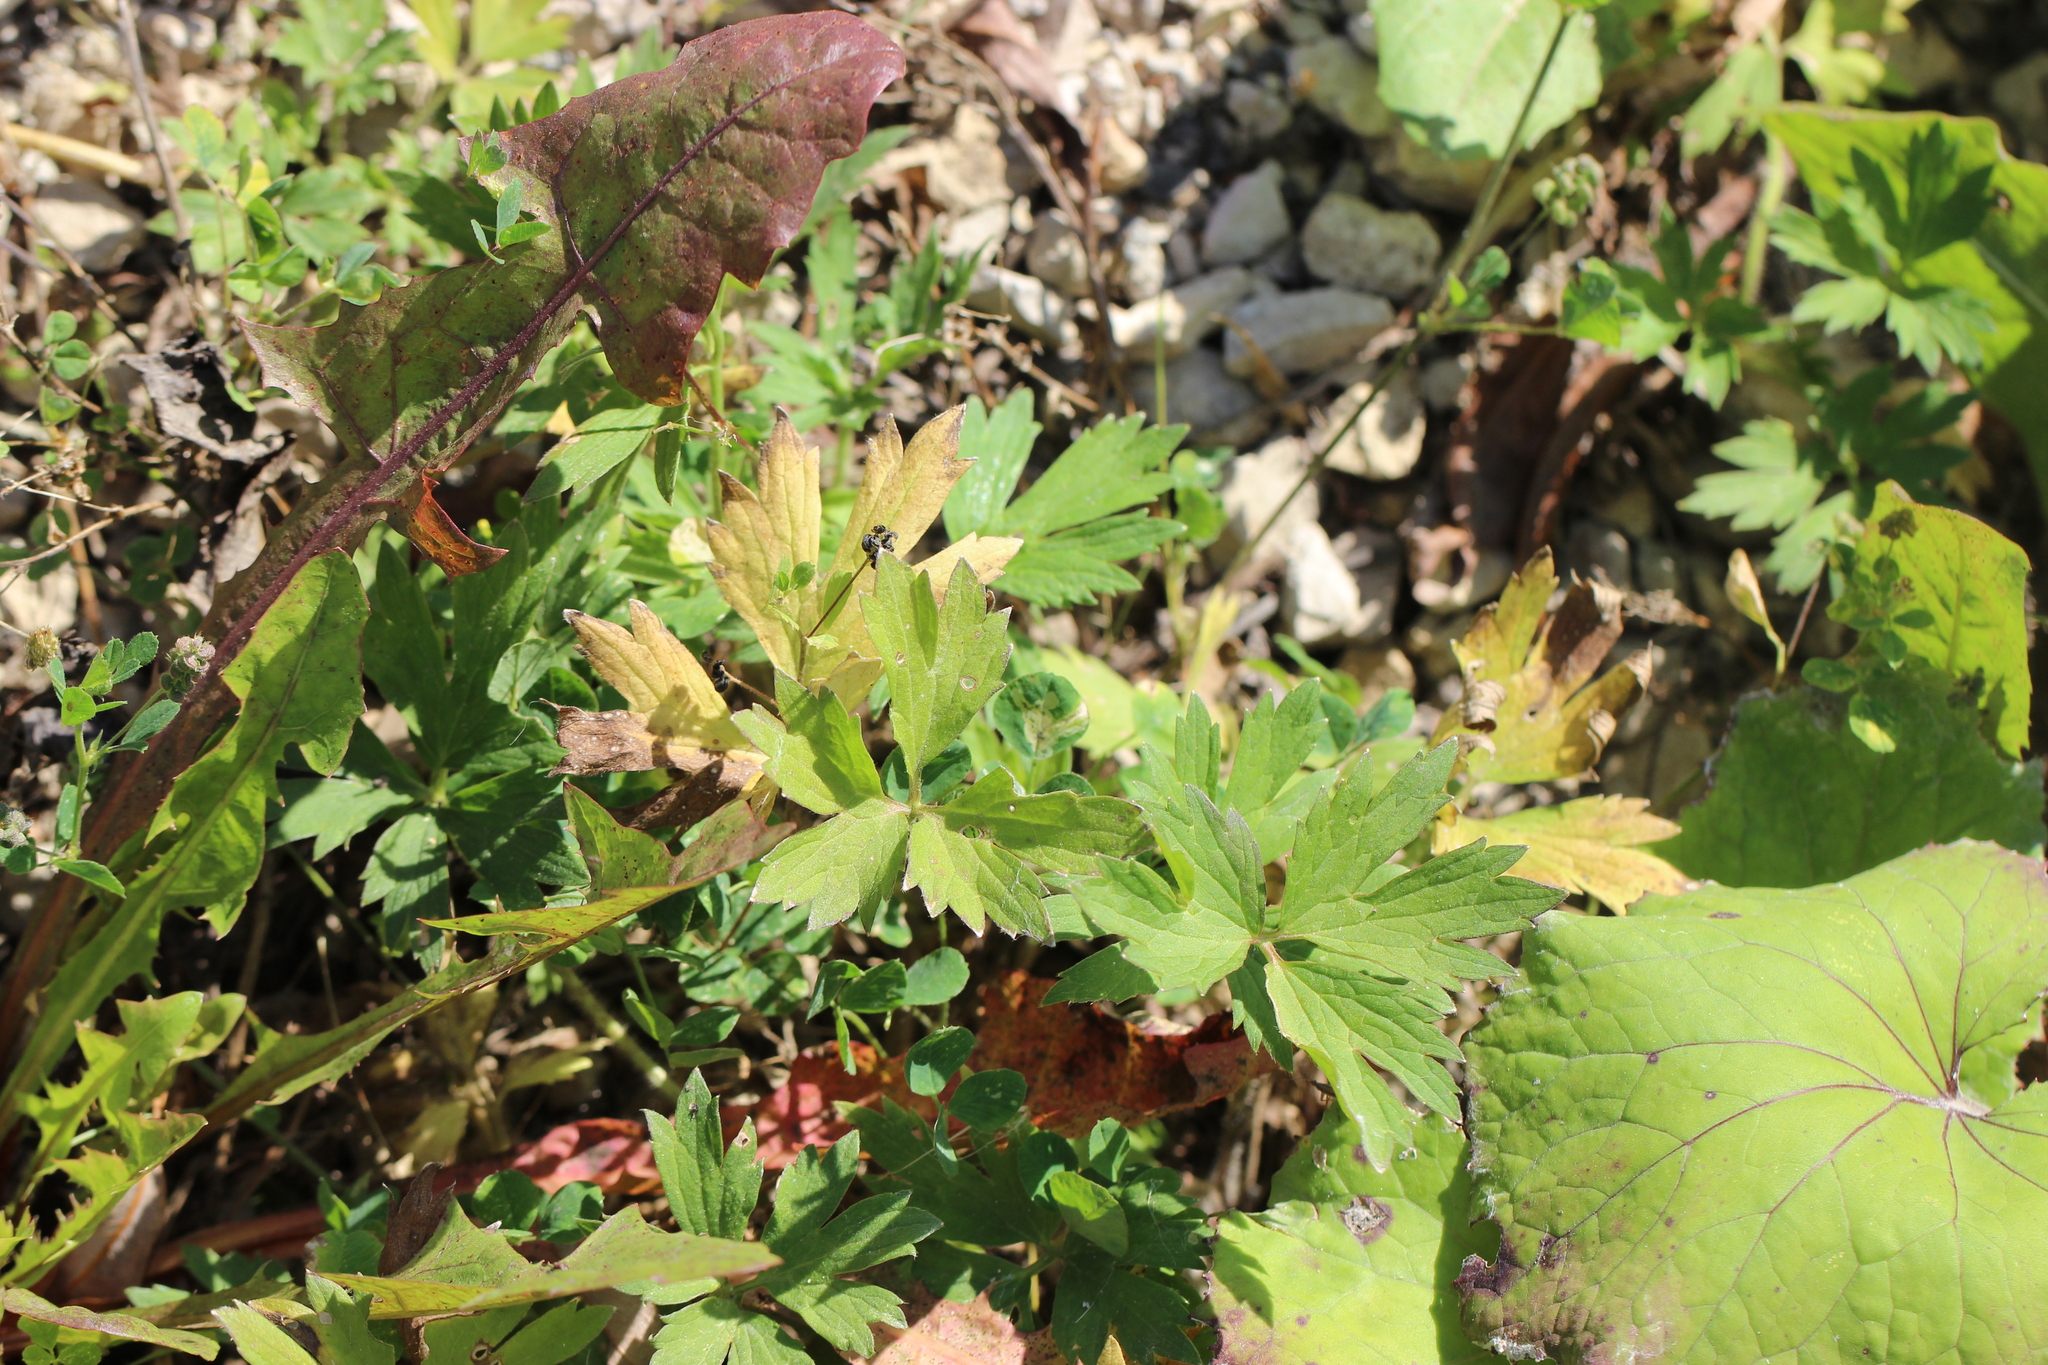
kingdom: Plantae
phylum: Tracheophyta
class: Magnoliopsida
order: Ranunculales
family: Ranunculaceae
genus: Ranunculus
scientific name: Ranunculus repens
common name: Creeping buttercup
